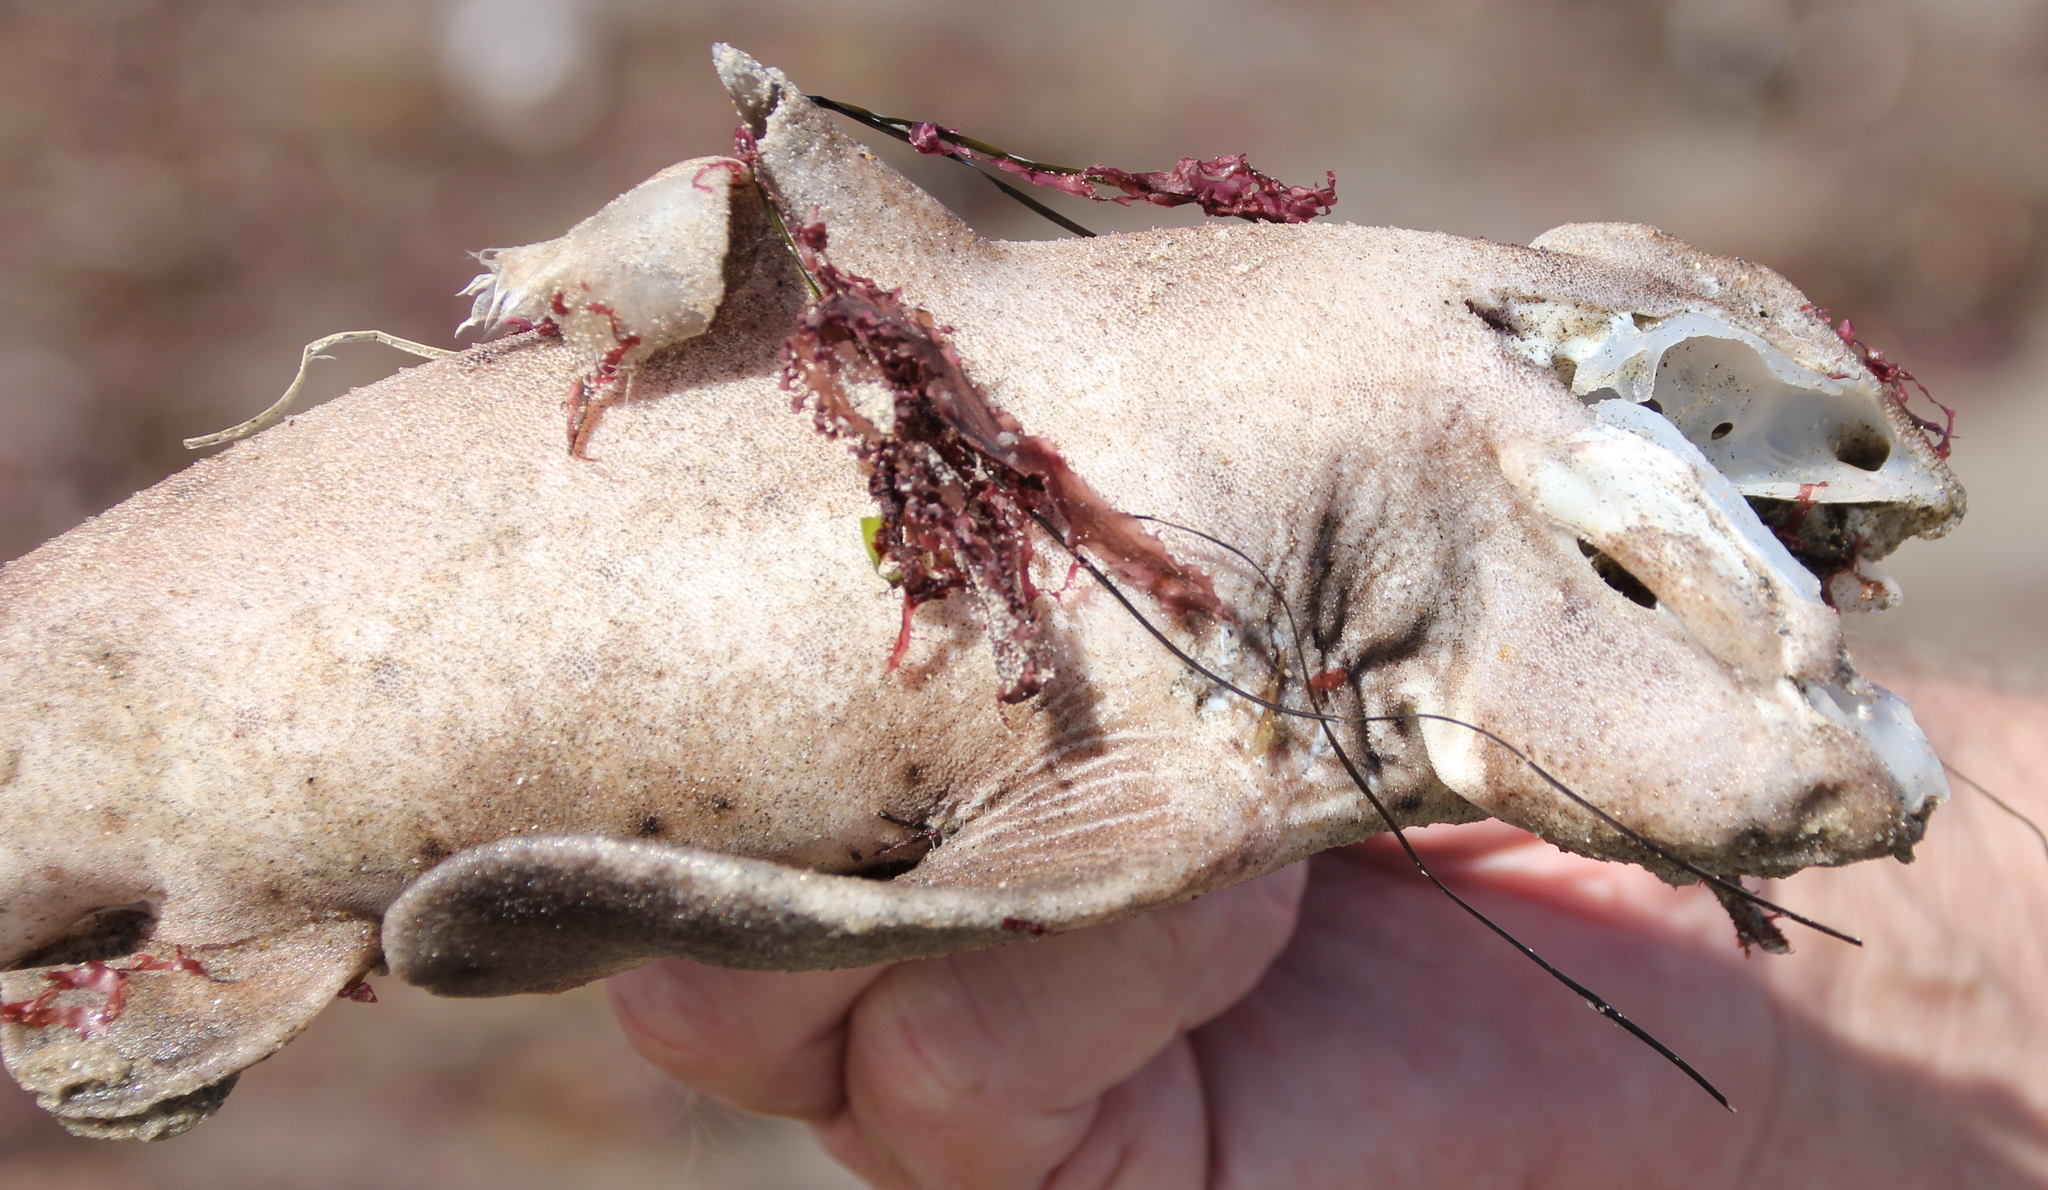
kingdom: Animalia
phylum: Chordata
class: Elasmobranchii
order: Heterodontiformes
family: Heterodontidae
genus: Heterodontus
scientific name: Heterodontus francisci
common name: Horn shark
